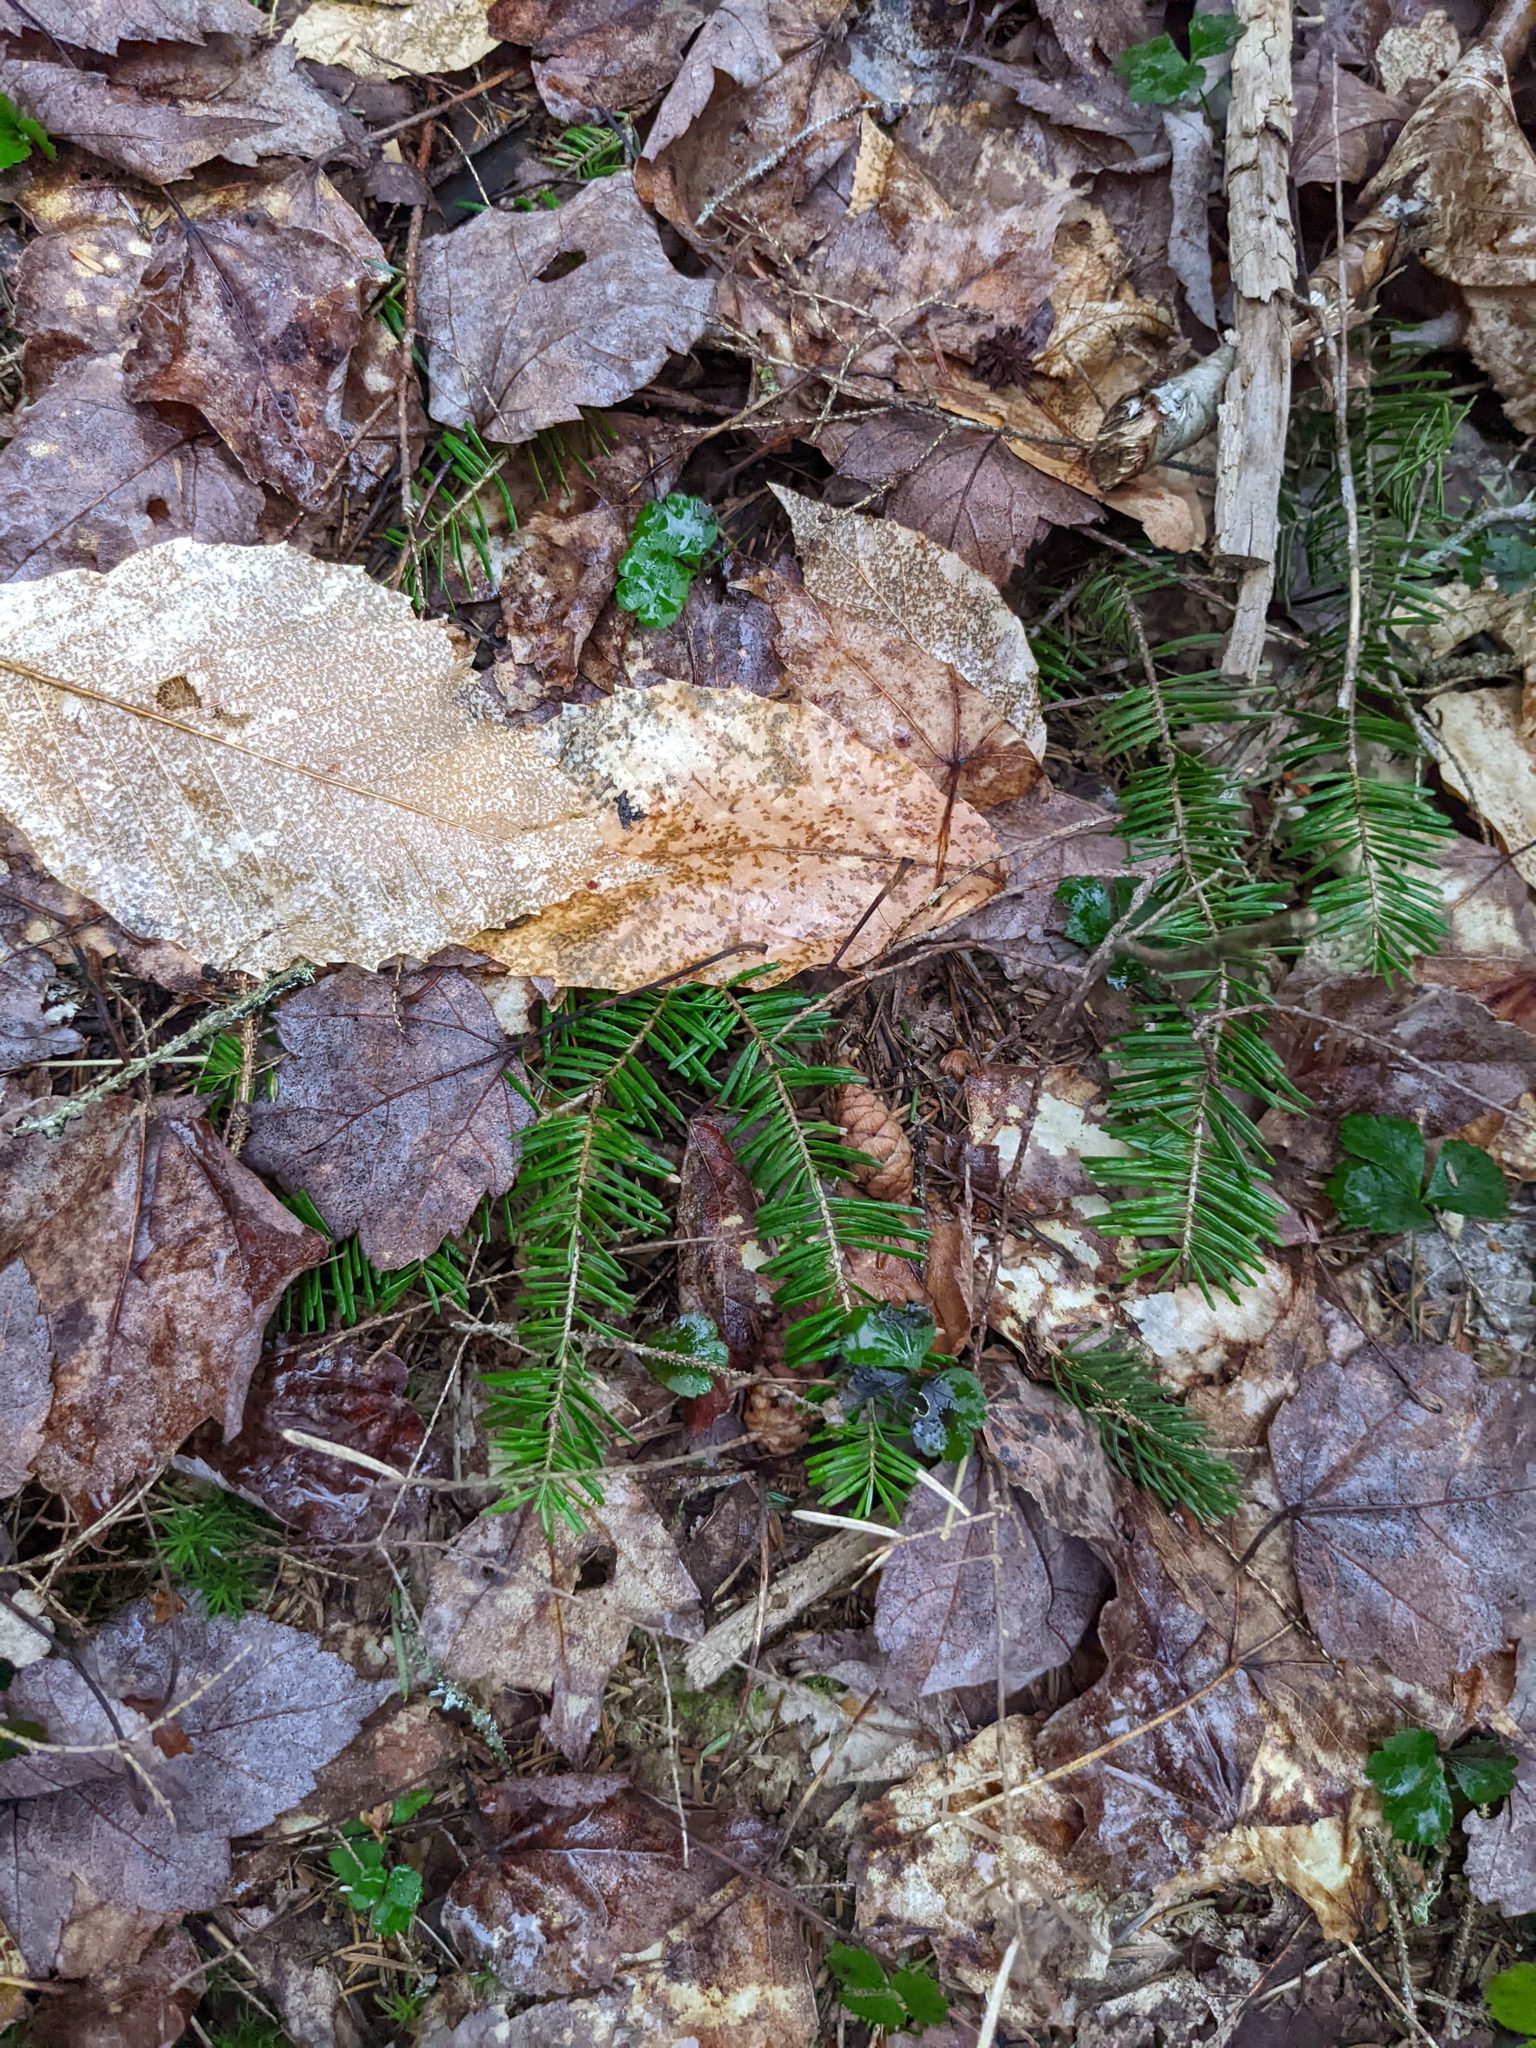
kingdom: Plantae
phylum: Tracheophyta
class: Magnoliopsida
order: Fagales
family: Fagaceae
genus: Fagus
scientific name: Fagus grandifolia
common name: American beech
